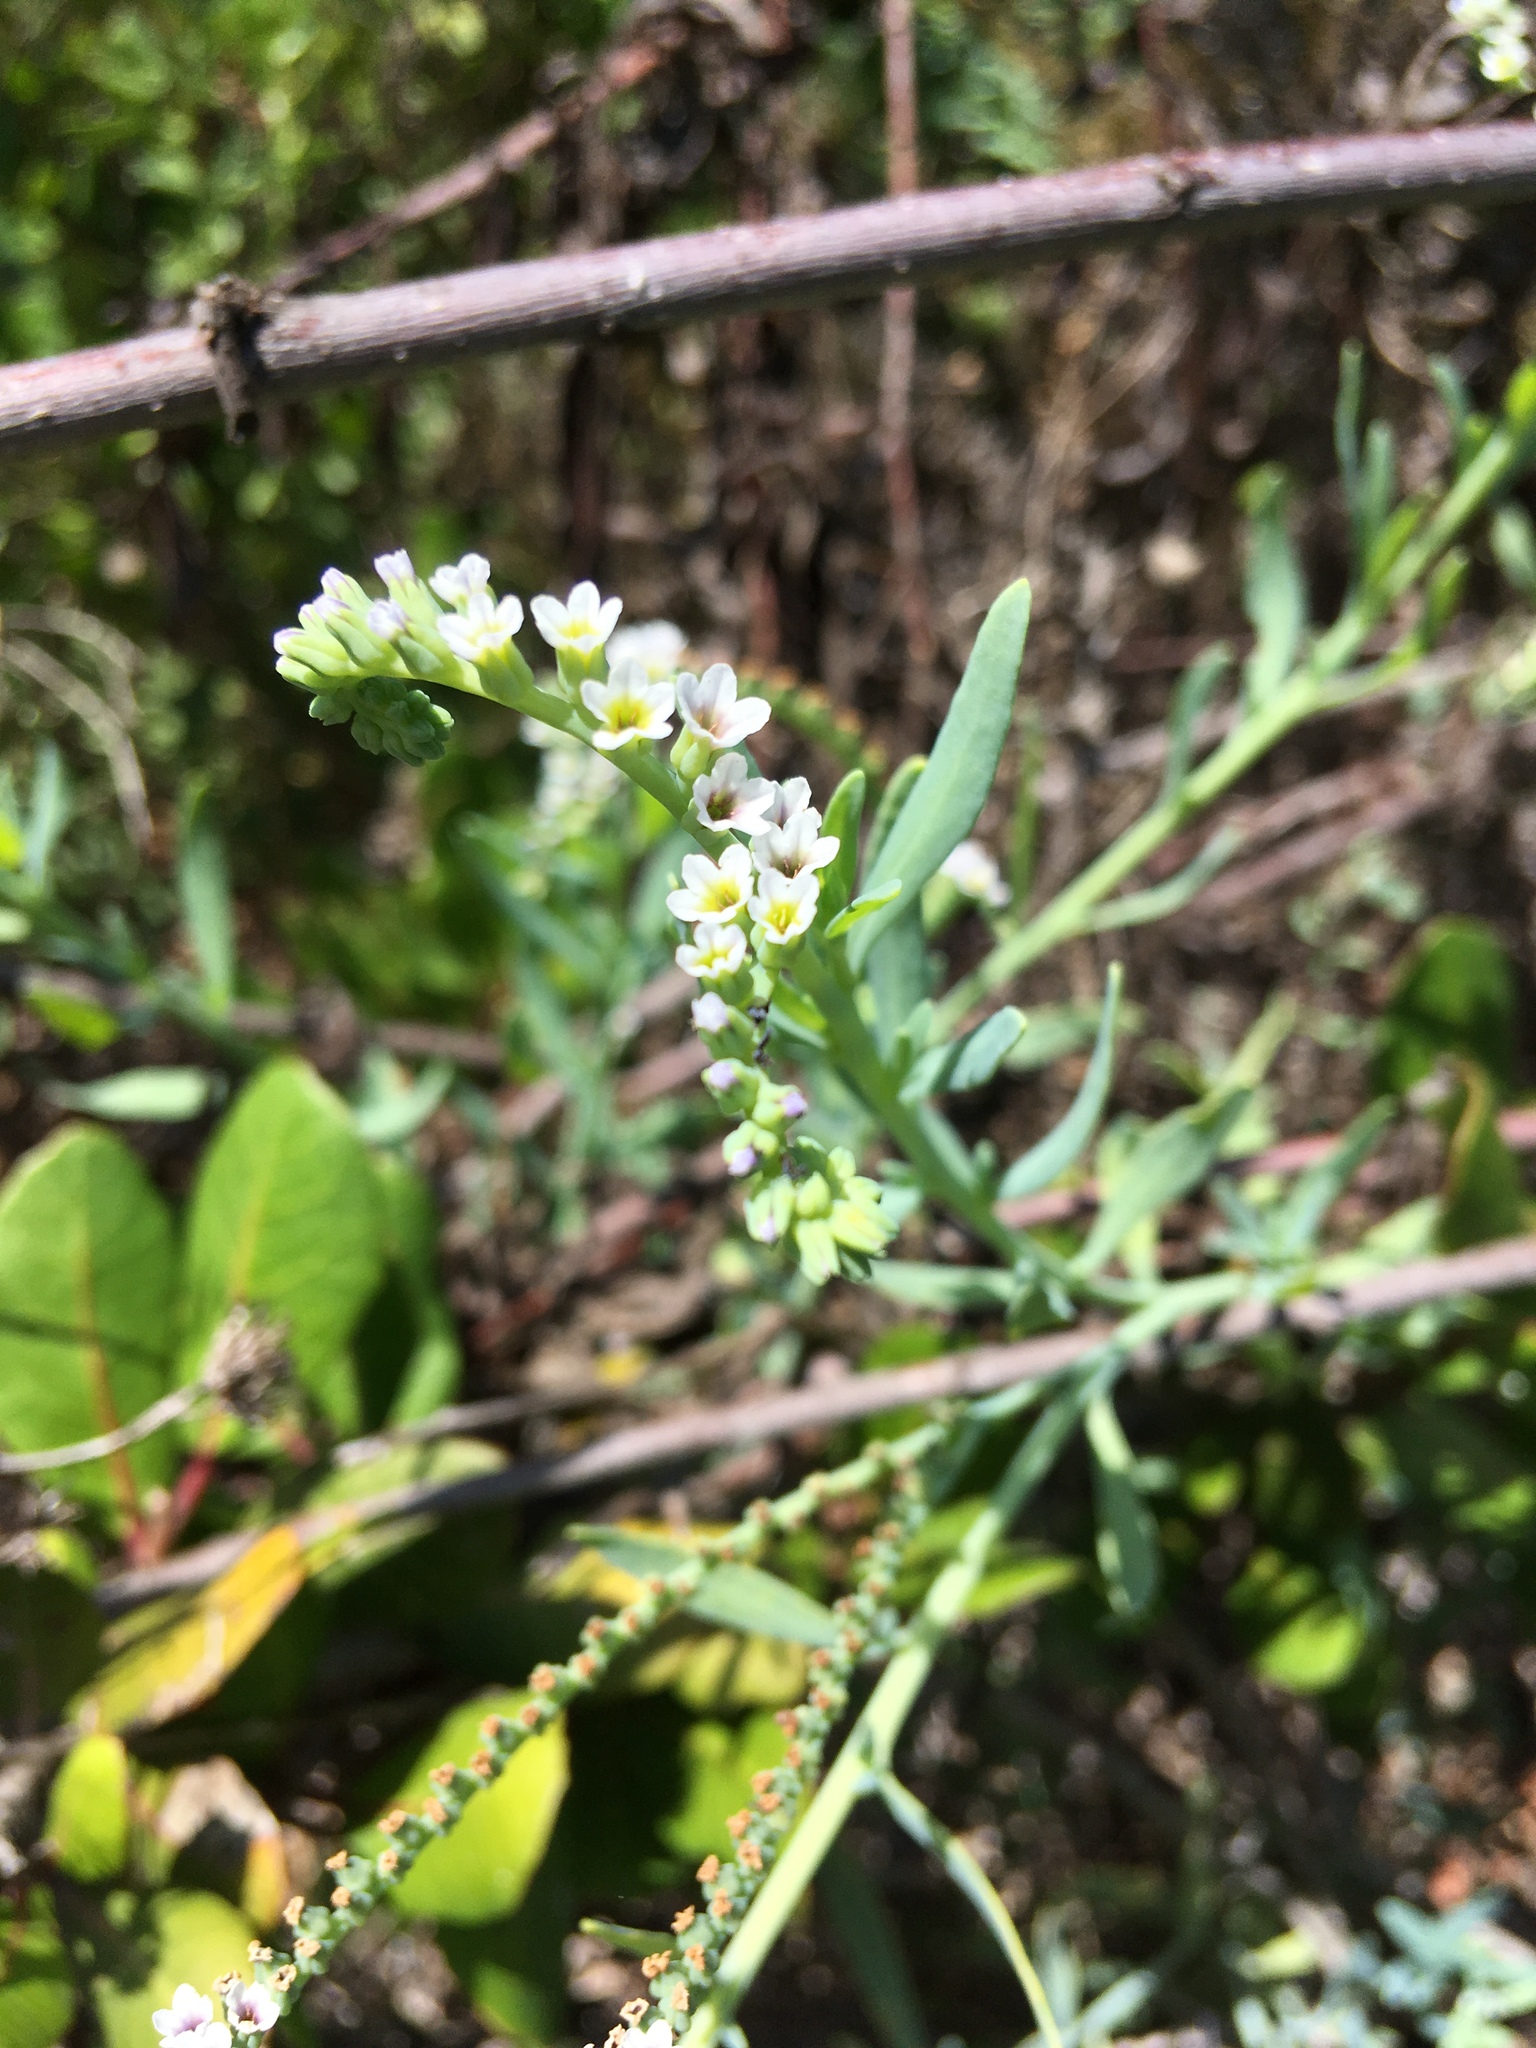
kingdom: Plantae
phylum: Tracheophyta
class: Magnoliopsida
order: Boraginales
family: Heliotropiaceae
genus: Heliotropium
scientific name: Heliotropium curassavicum
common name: Seaside heliotrope
